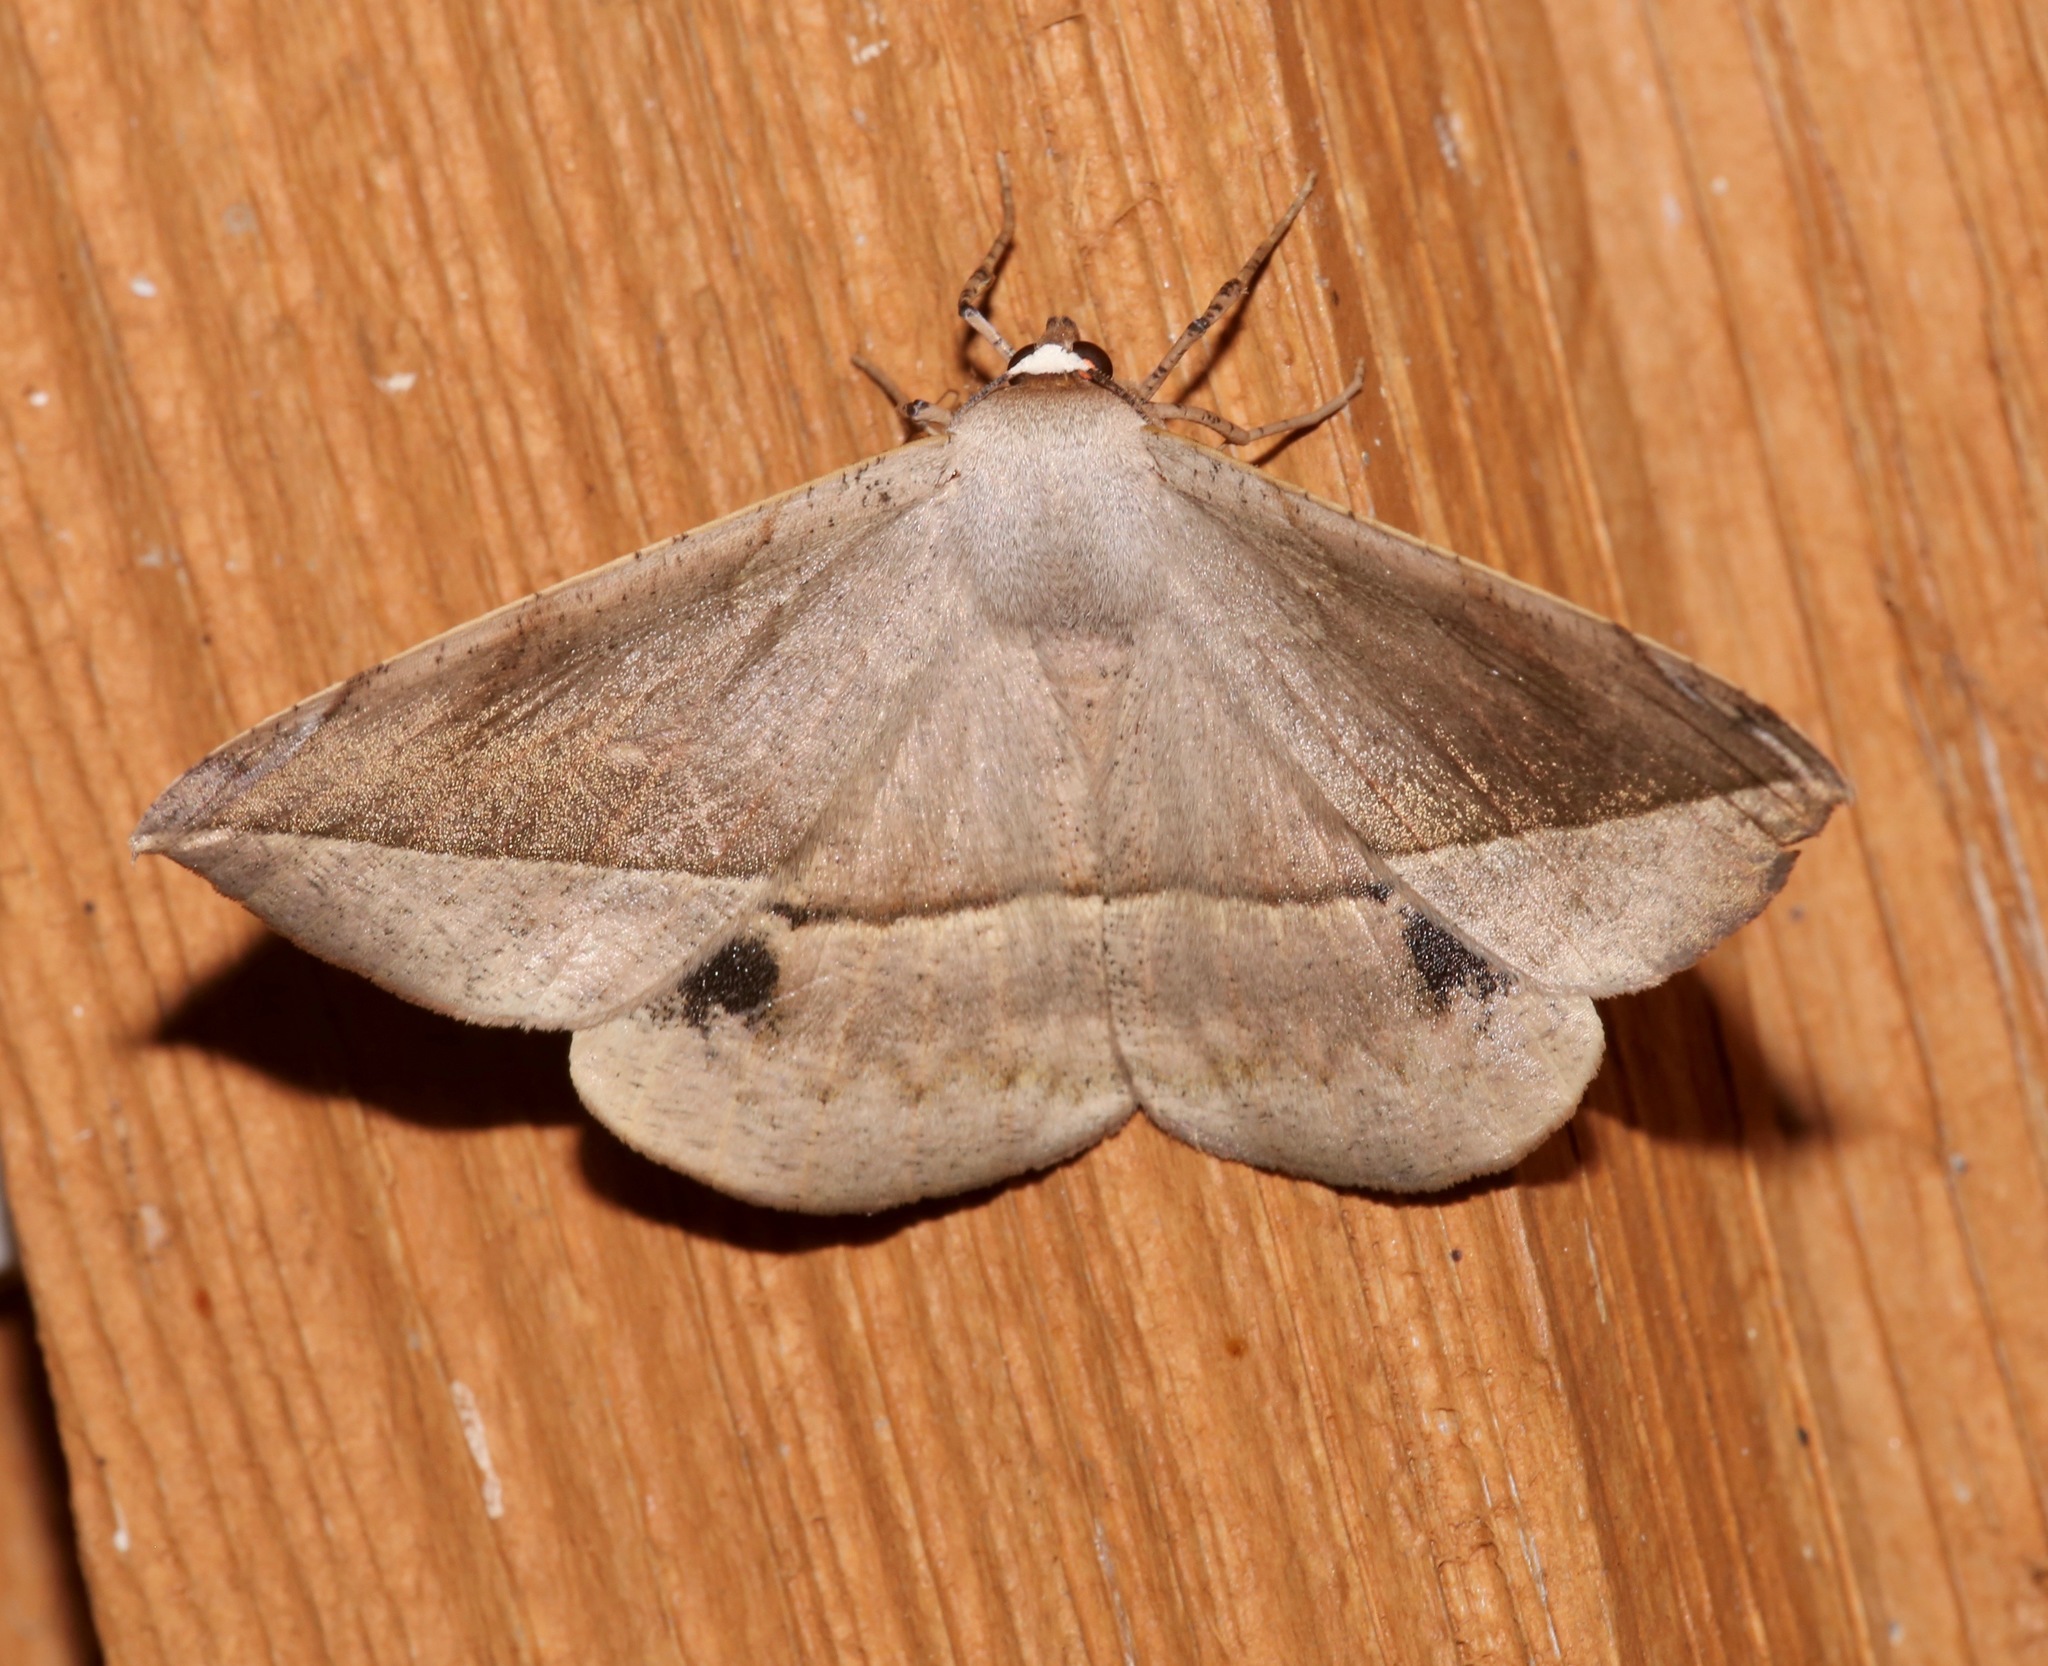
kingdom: Animalia
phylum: Arthropoda
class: Insecta
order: Lepidoptera
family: Geometridae
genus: Oxydia
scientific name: Oxydia vesulia
